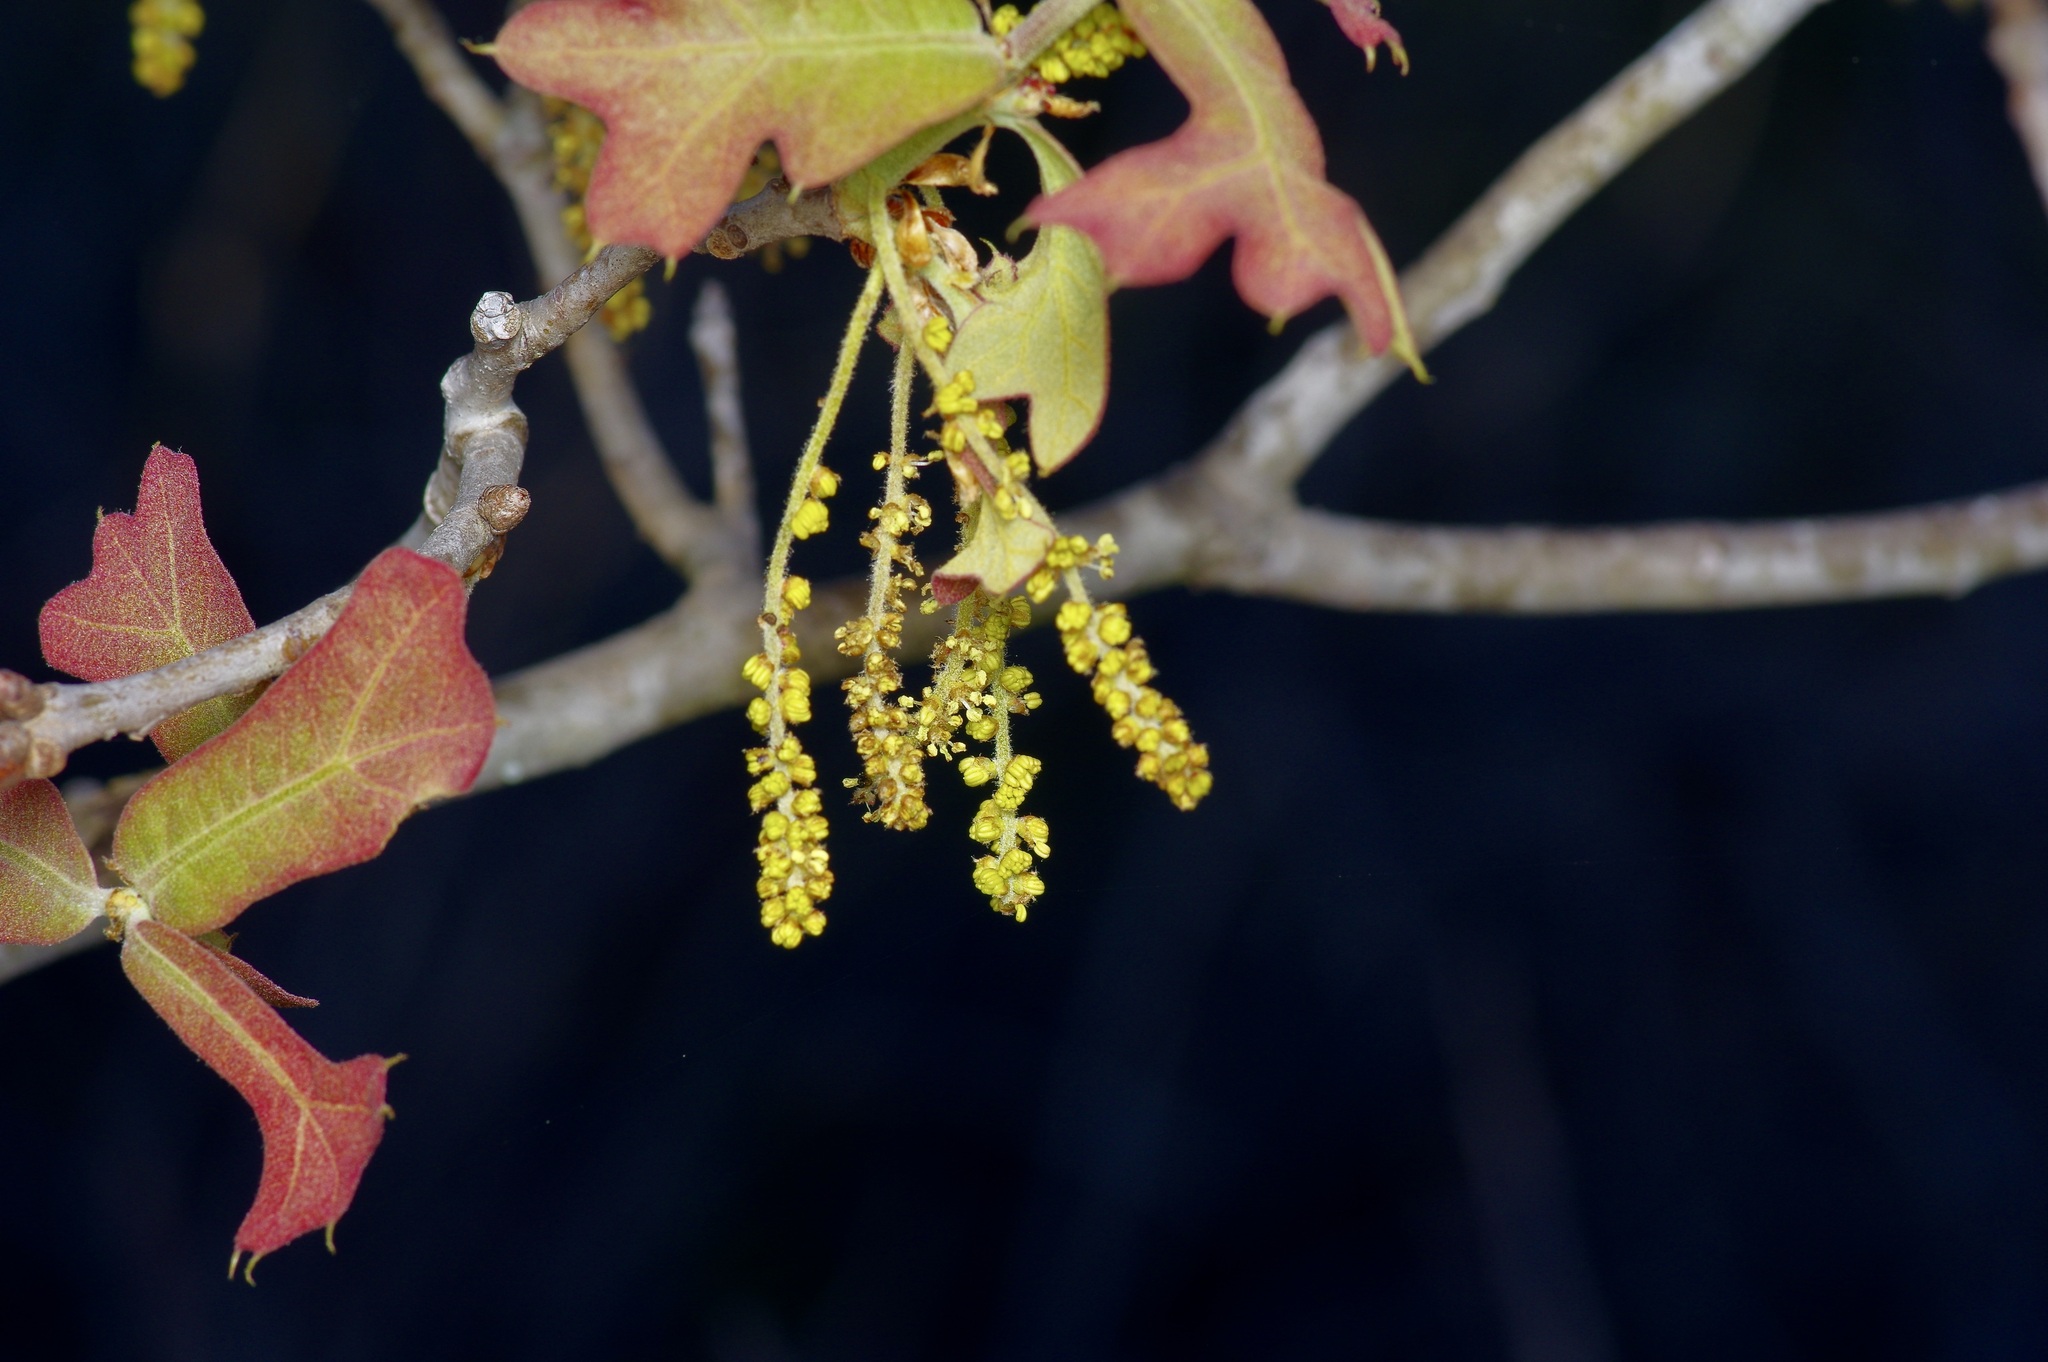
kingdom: Plantae
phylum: Tracheophyta
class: Magnoliopsida
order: Fagales
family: Fagaceae
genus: Quercus
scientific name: Quercus marilandica
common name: Blackjack oak
